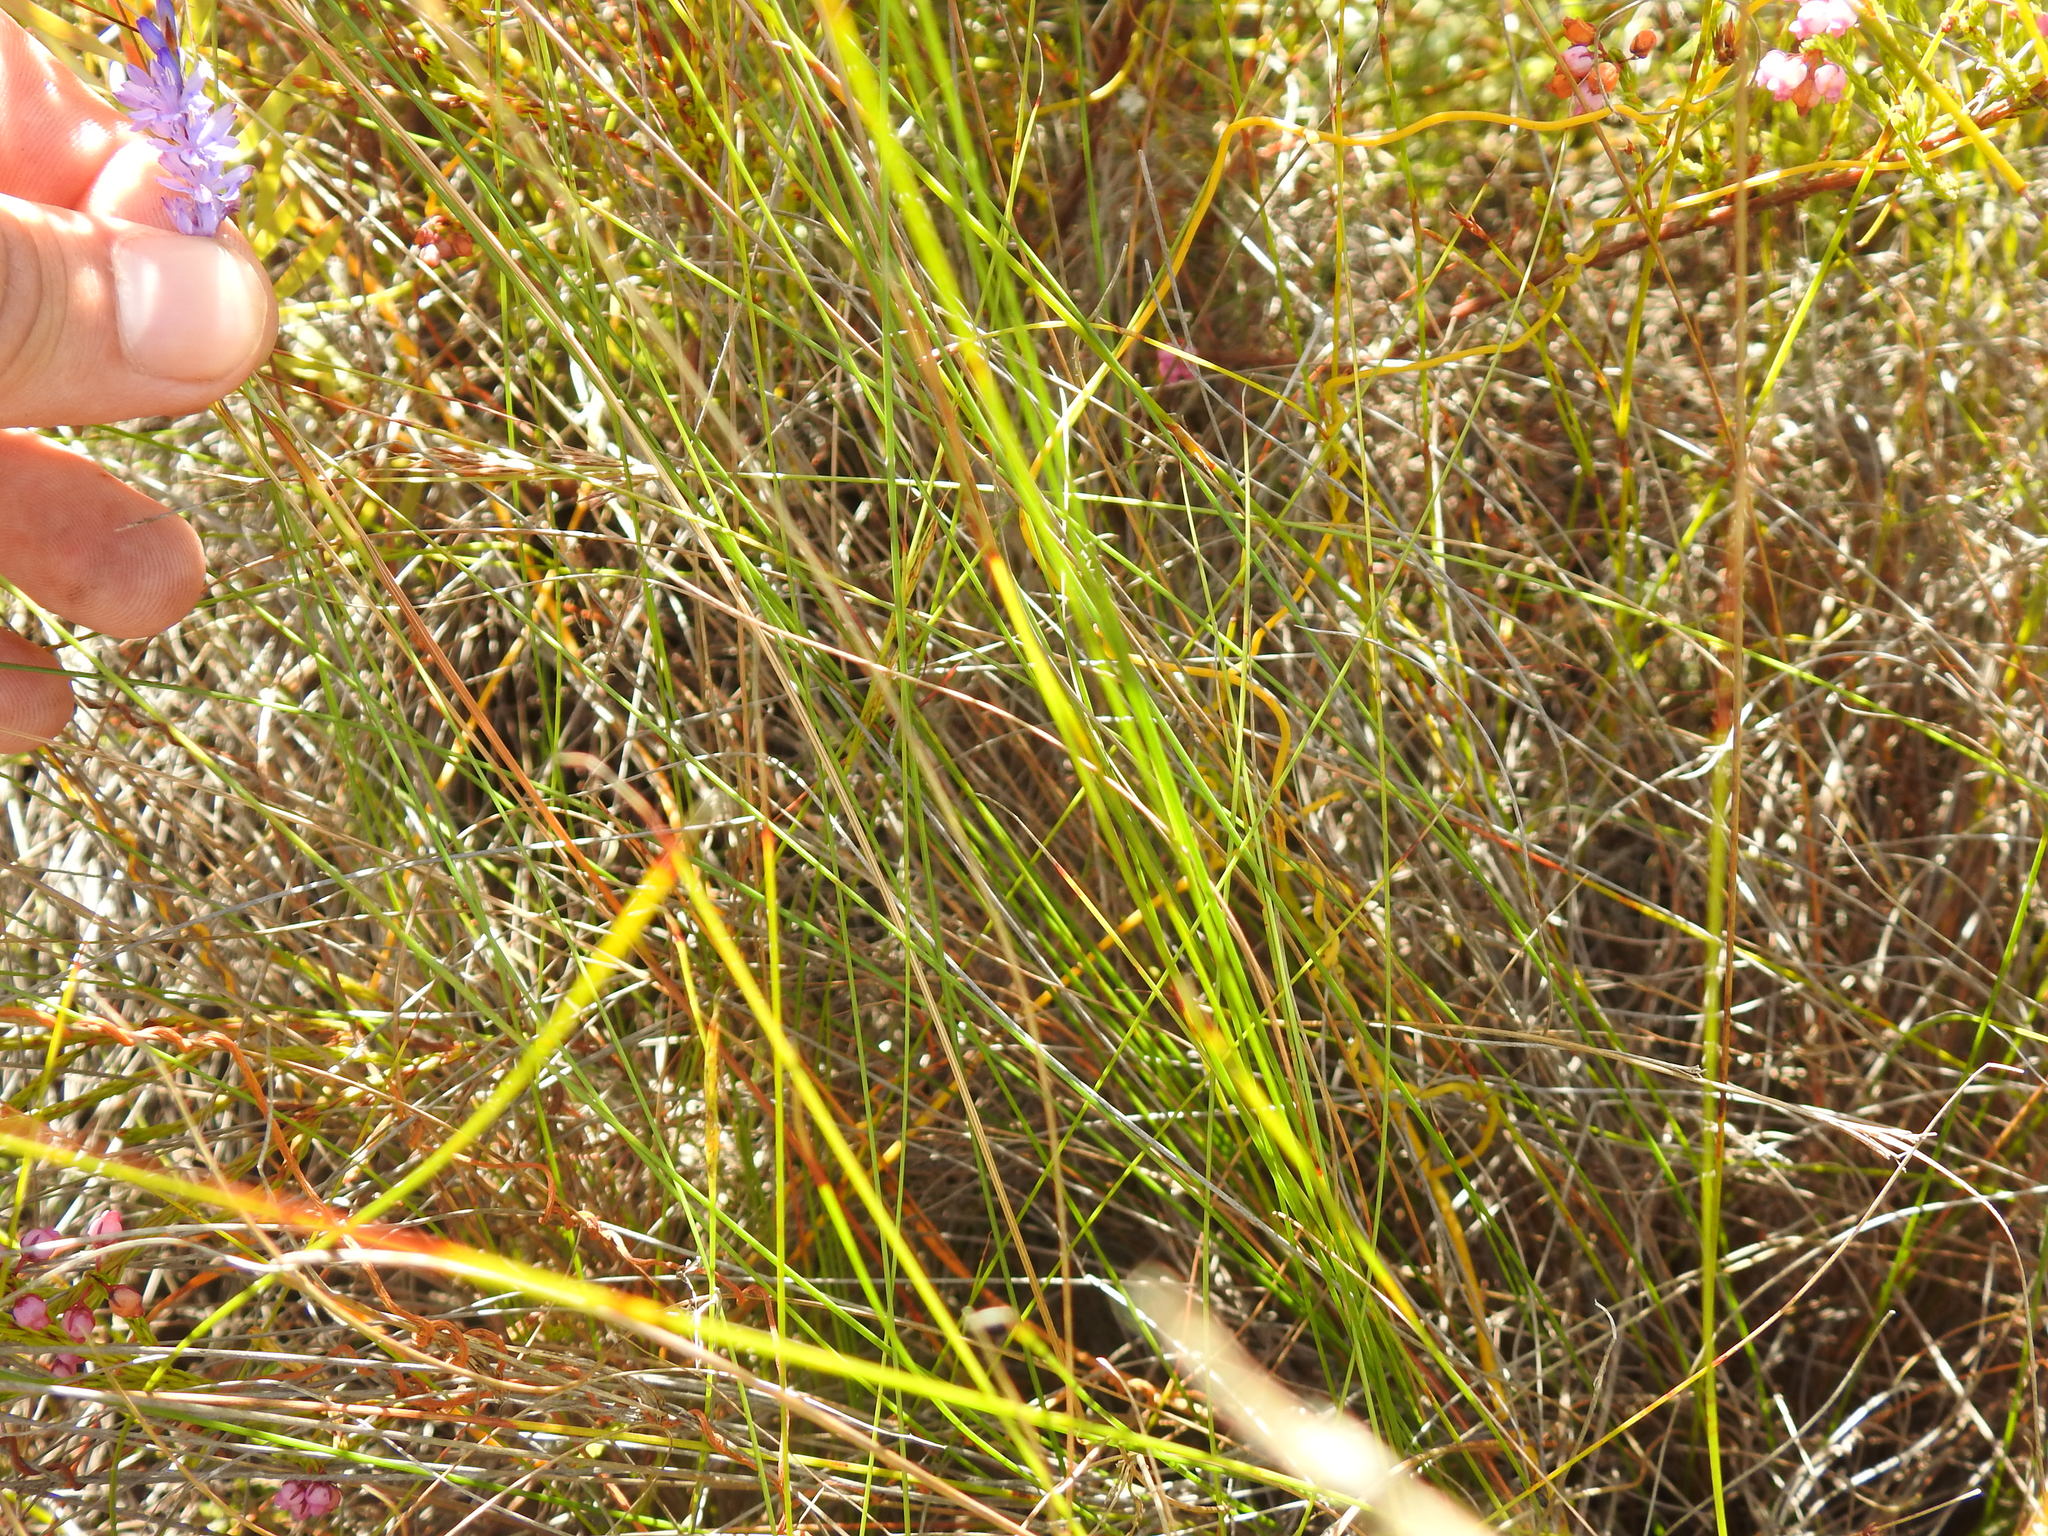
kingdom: Plantae
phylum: Tracheophyta
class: Liliopsida
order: Asparagales
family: Iridaceae
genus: Micranthus
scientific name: Micranthus filifolius
